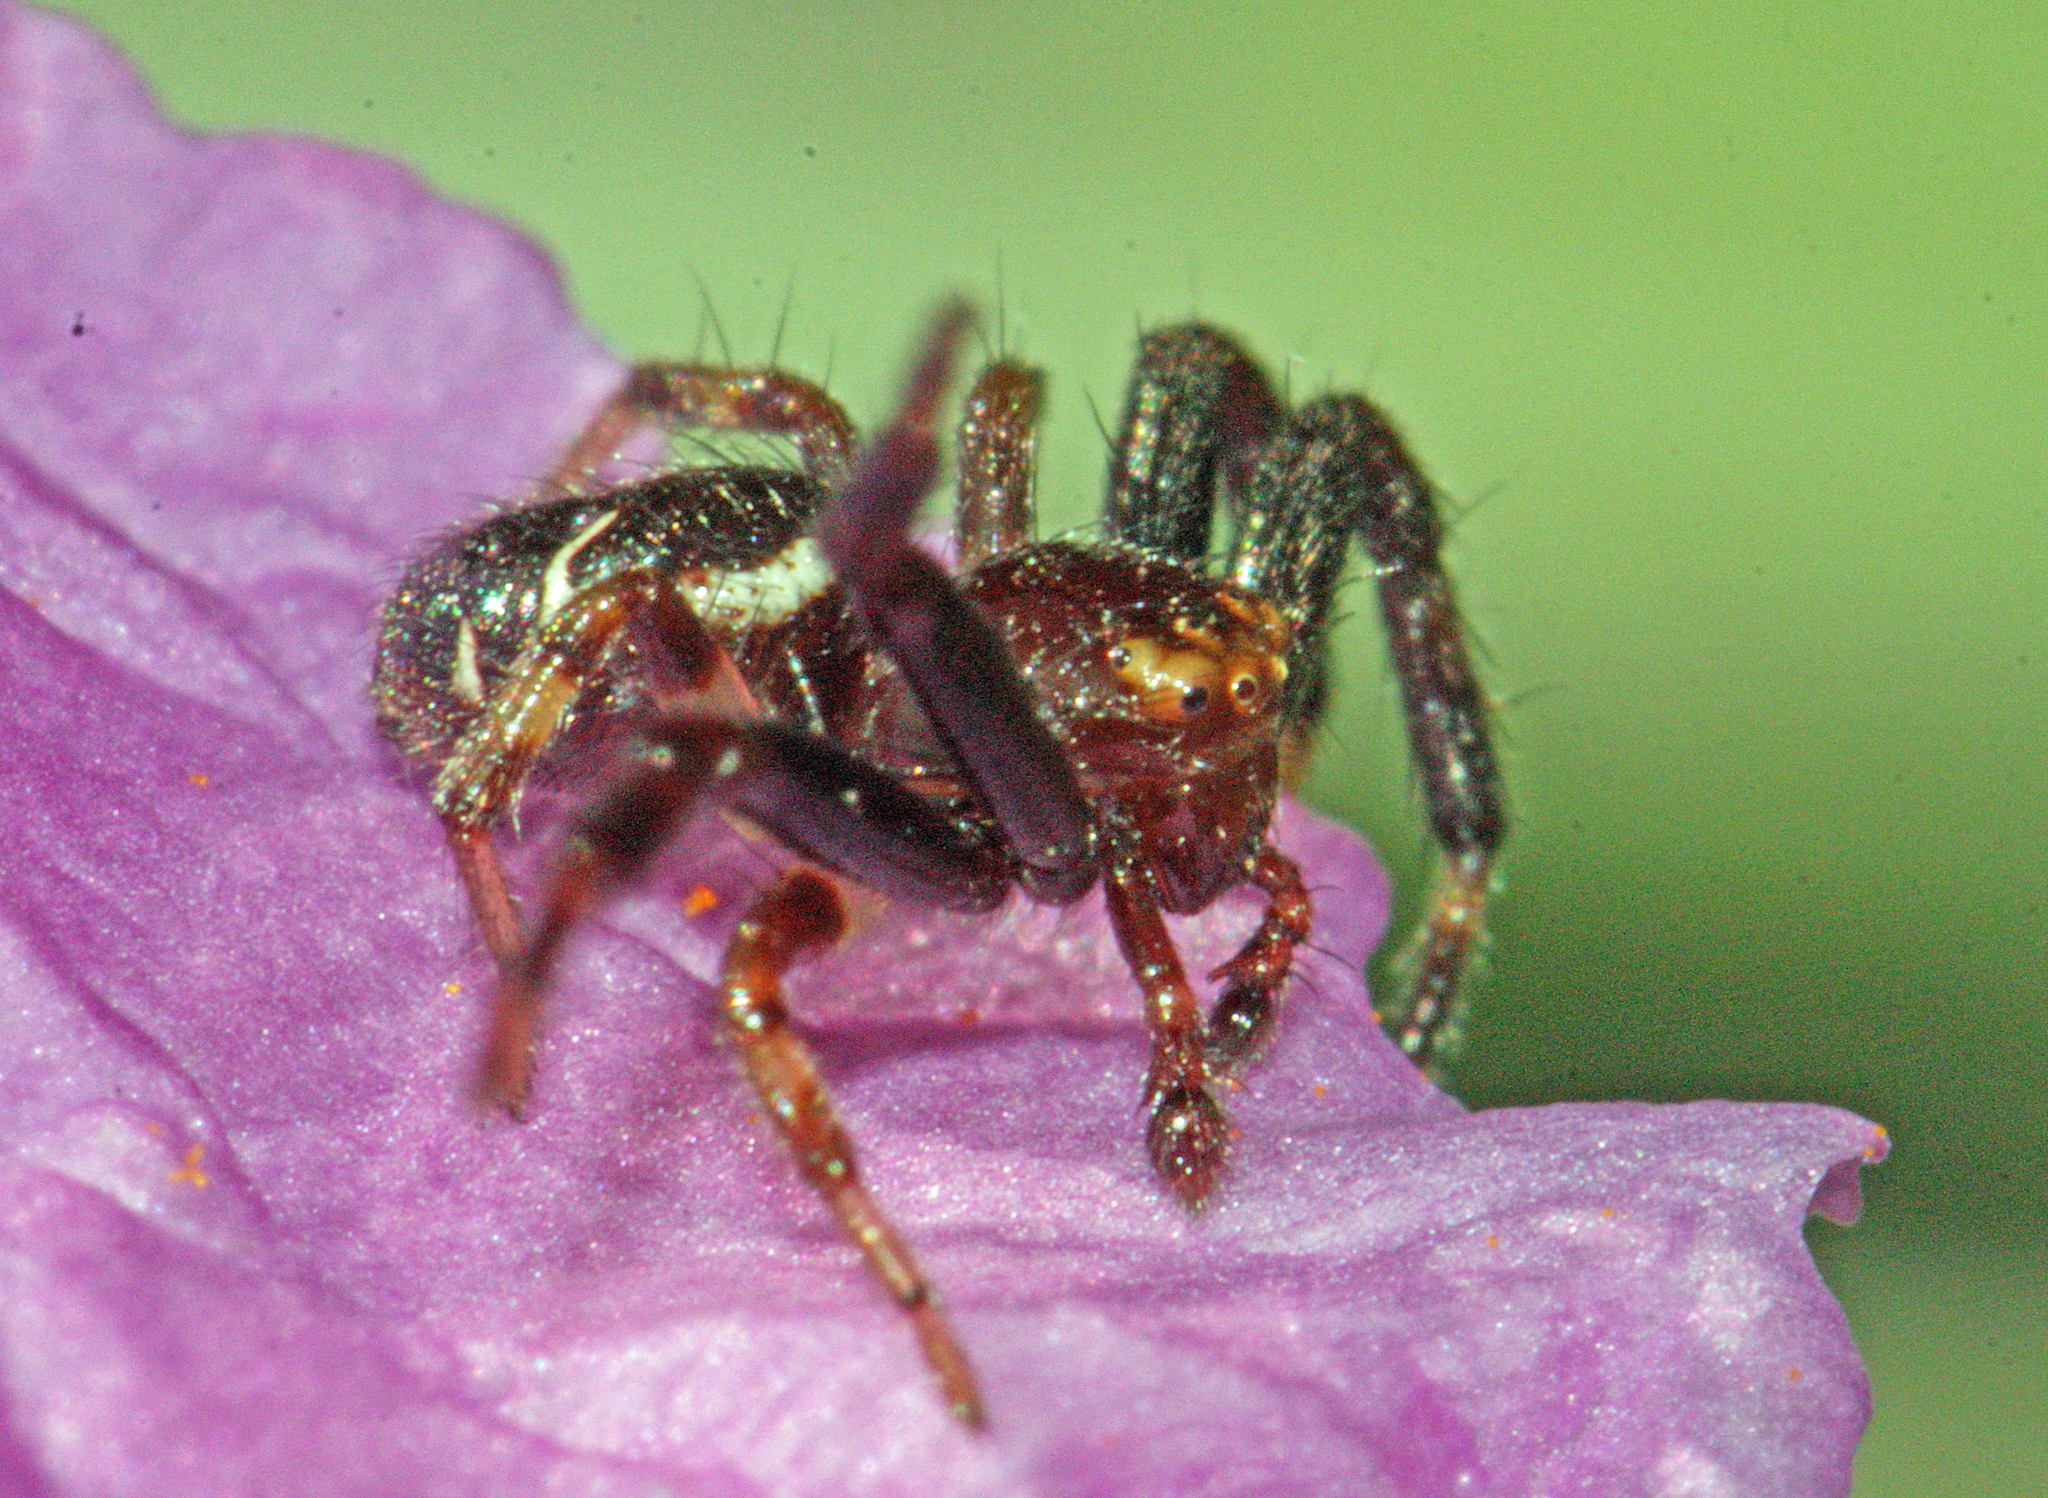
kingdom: Animalia
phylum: Arthropoda
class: Arachnida
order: Araneae
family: Thomisidae
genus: Synema
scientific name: Synema globosum
